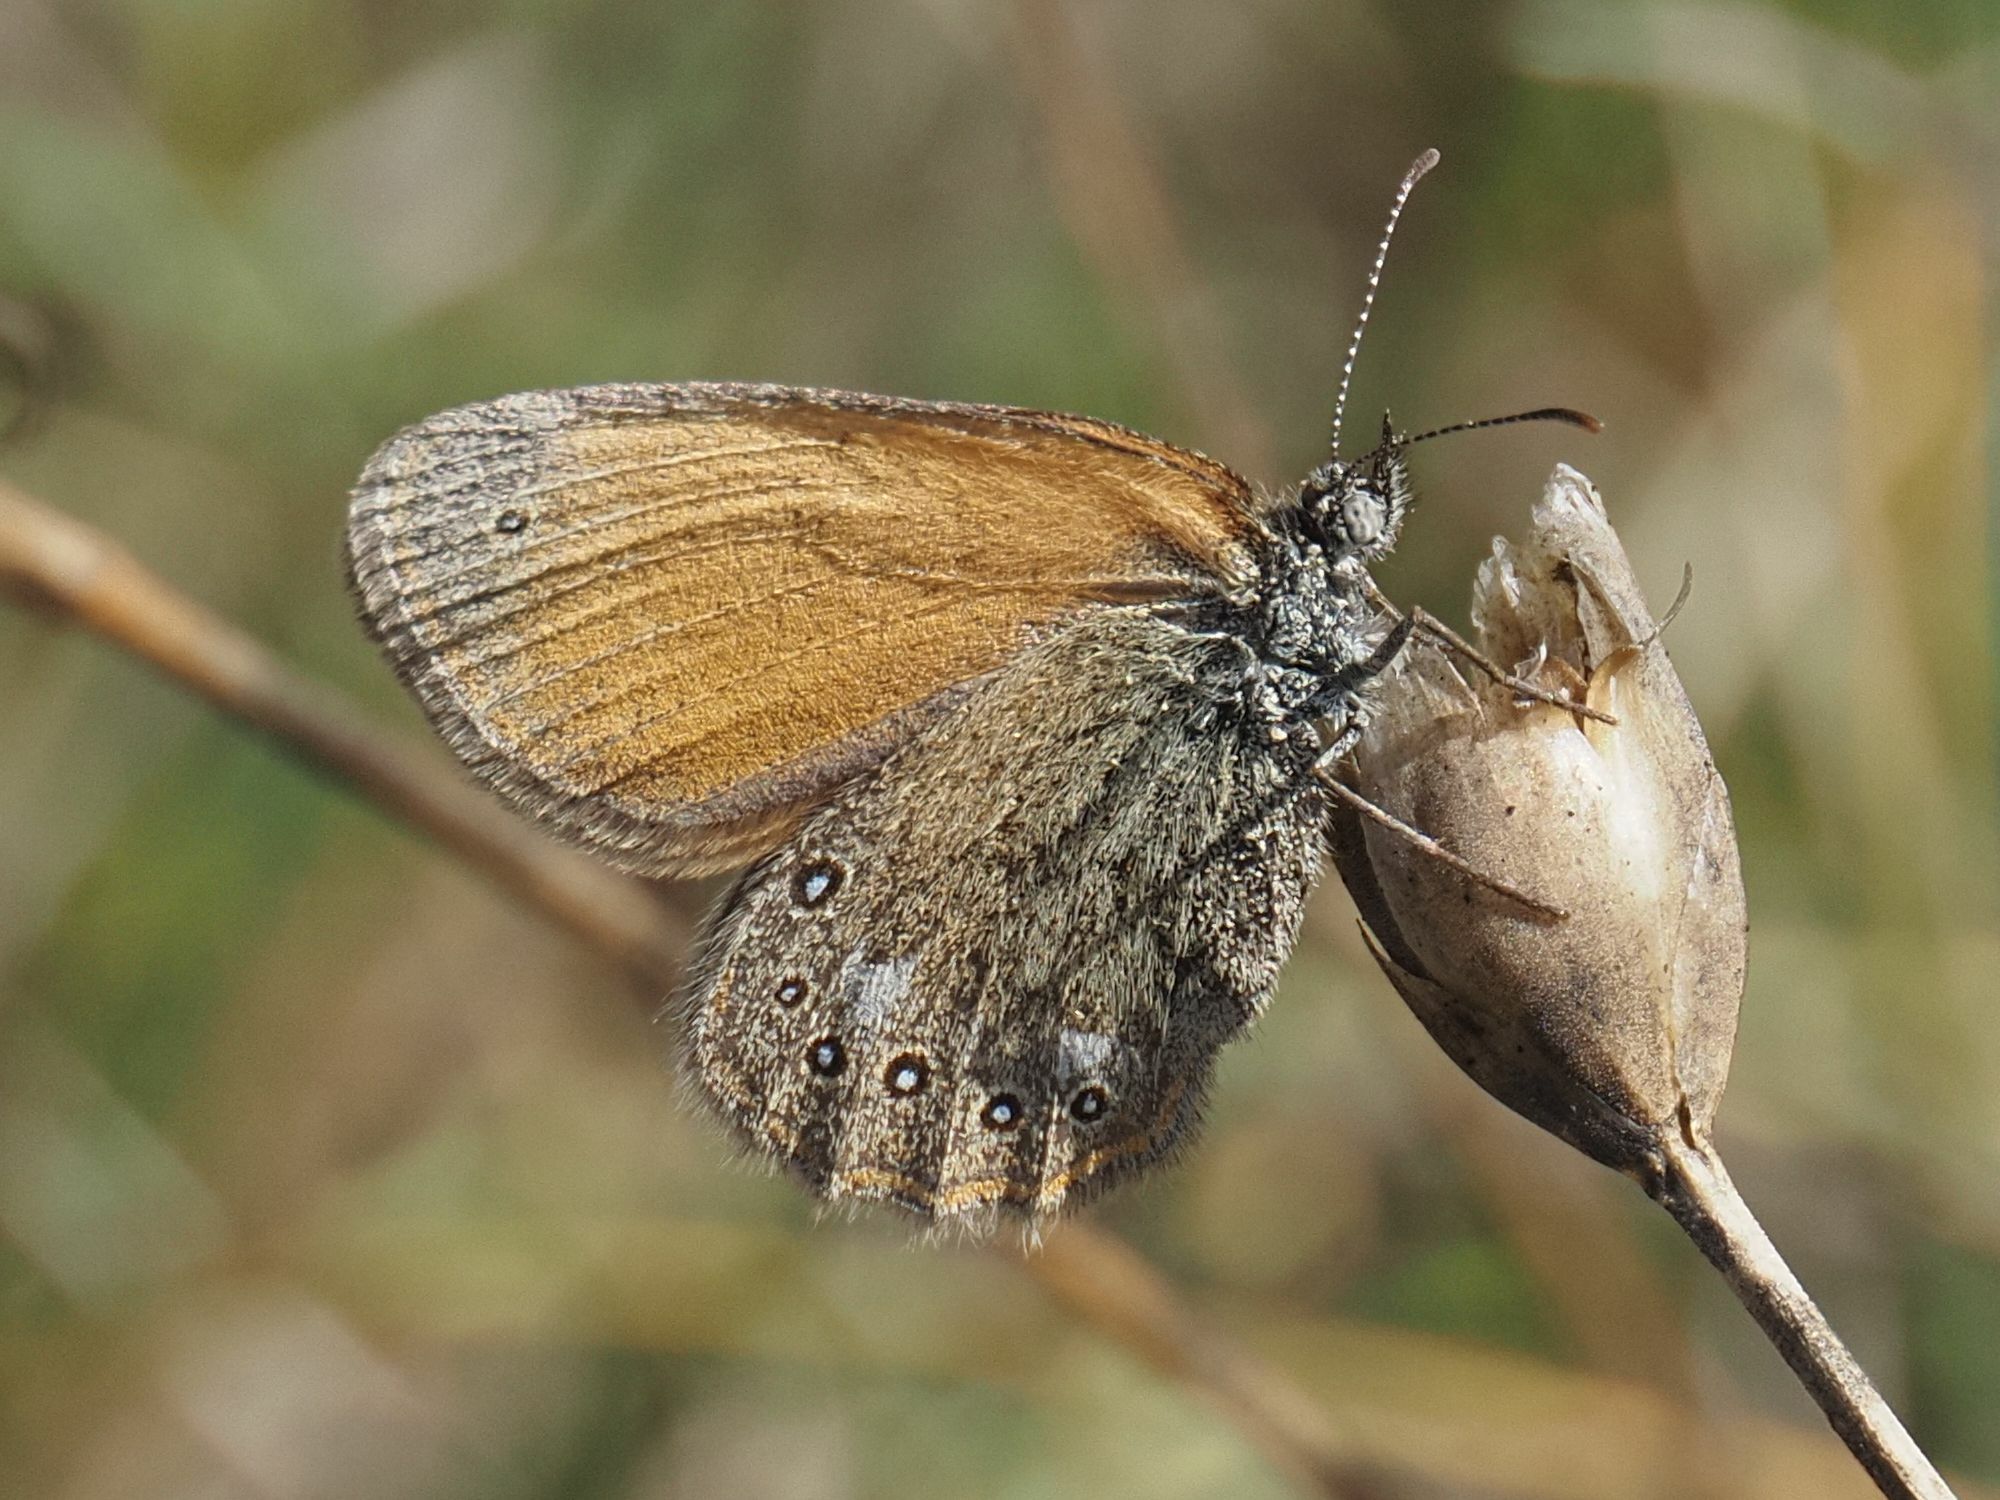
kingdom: Animalia
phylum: Arthropoda
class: Insecta
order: Lepidoptera
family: Nymphalidae
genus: Coenonympha
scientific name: Coenonympha iphis
